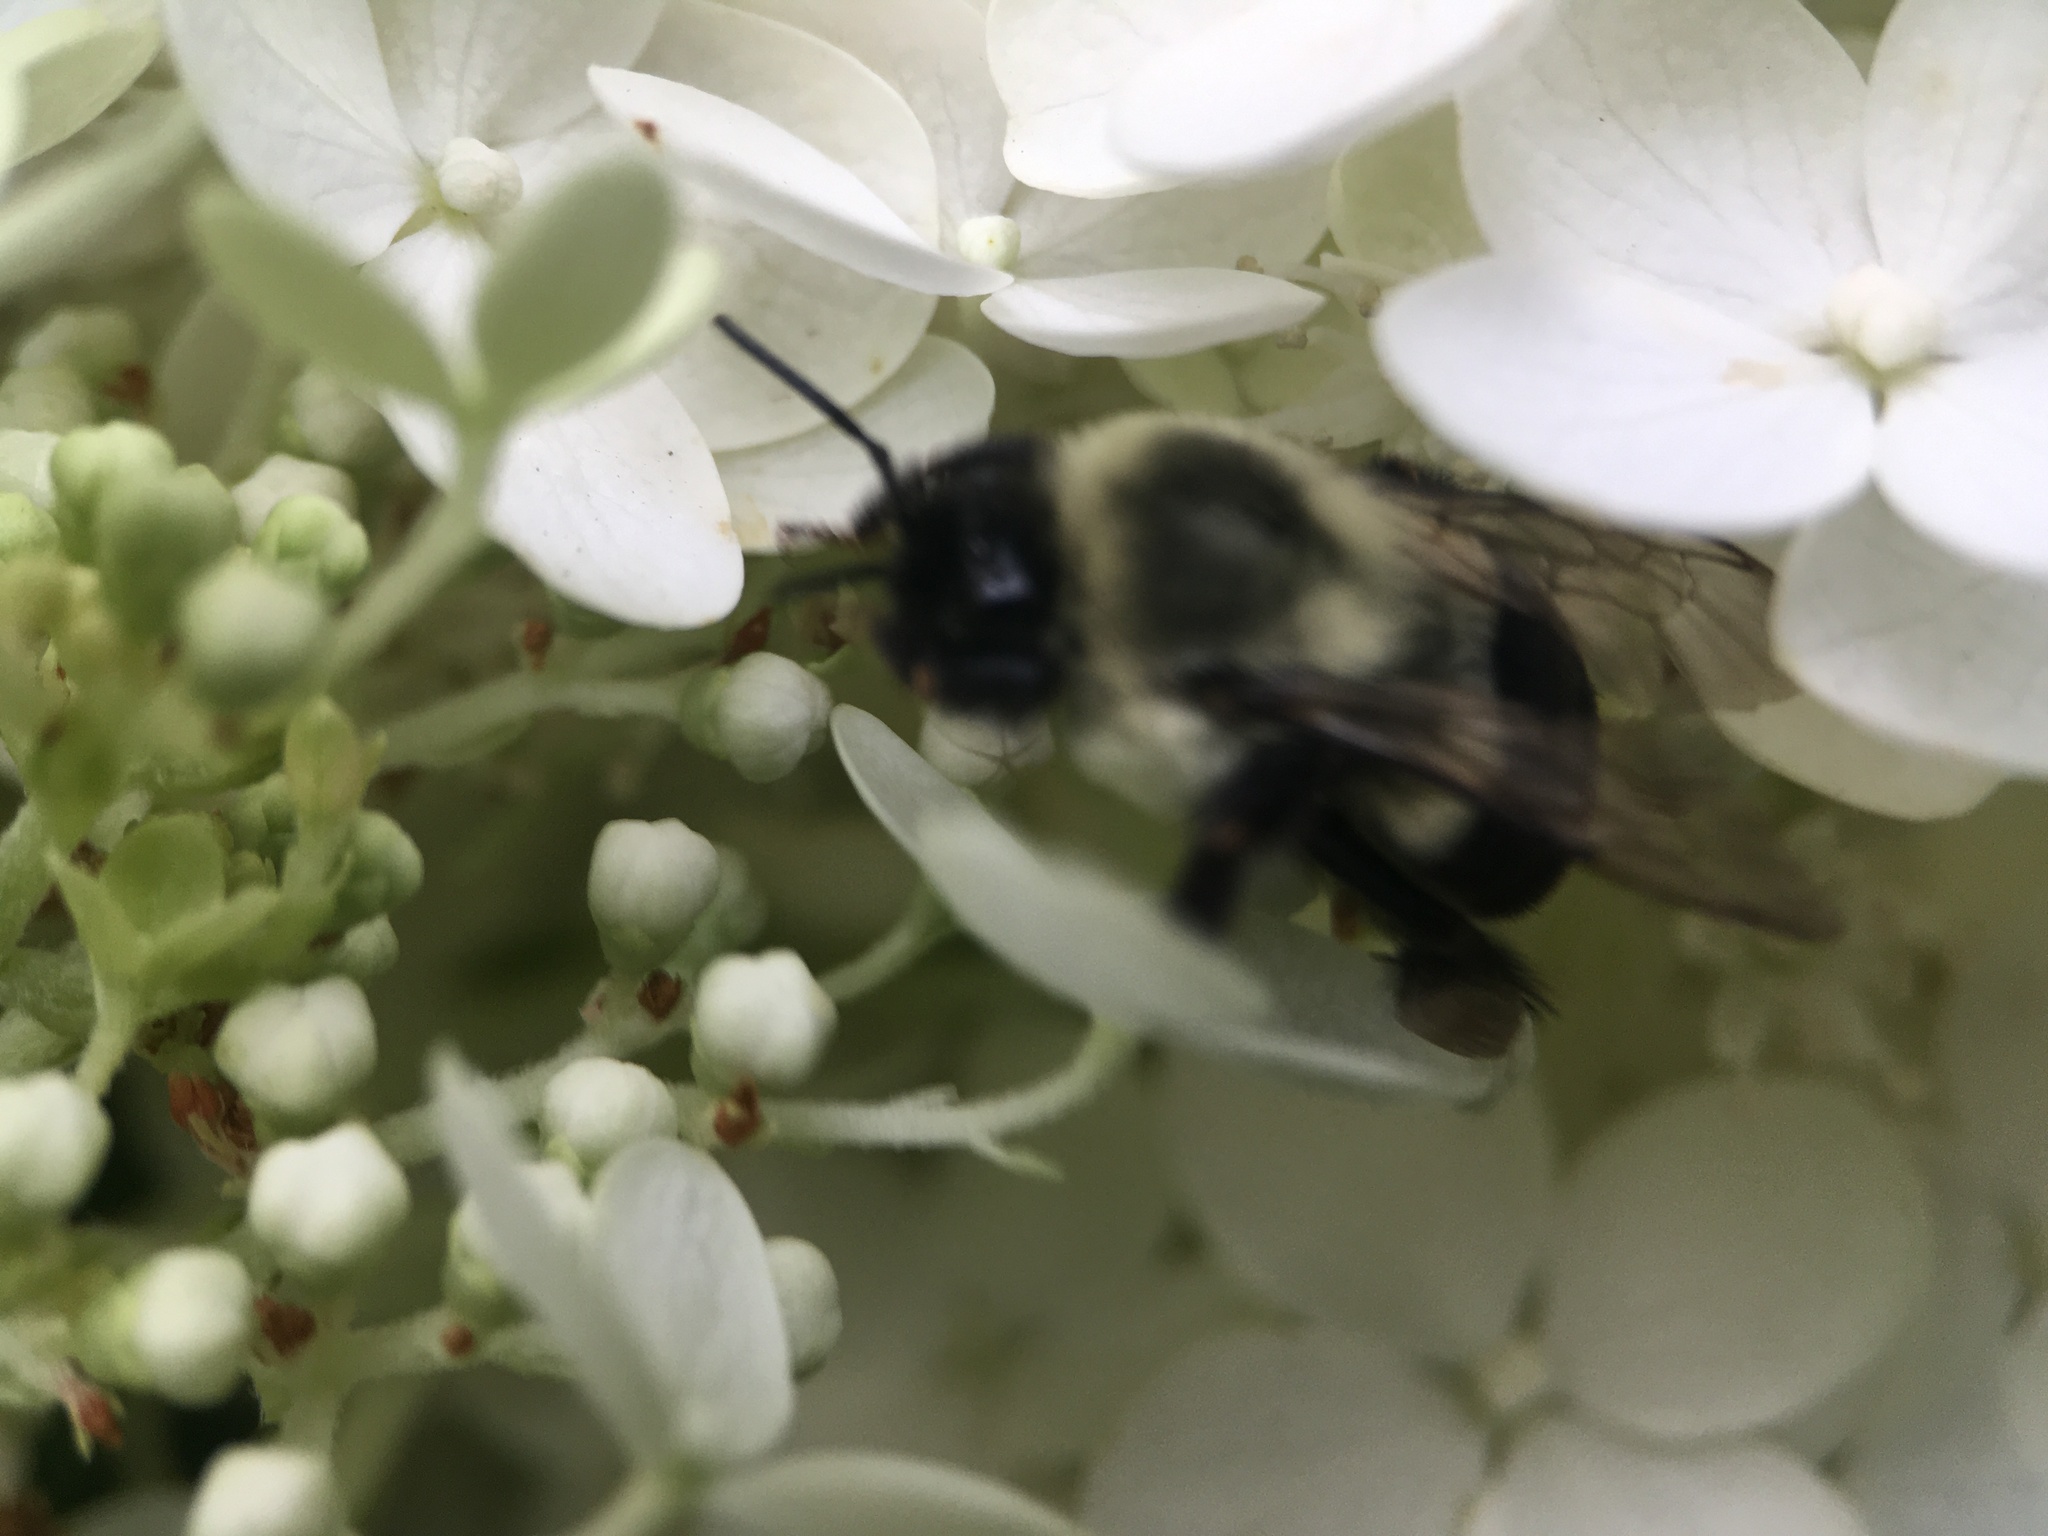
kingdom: Animalia
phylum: Arthropoda
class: Insecta
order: Hymenoptera
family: Apidae
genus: Bombus
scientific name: Bombus impatiens
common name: Common eastern bumble bee
